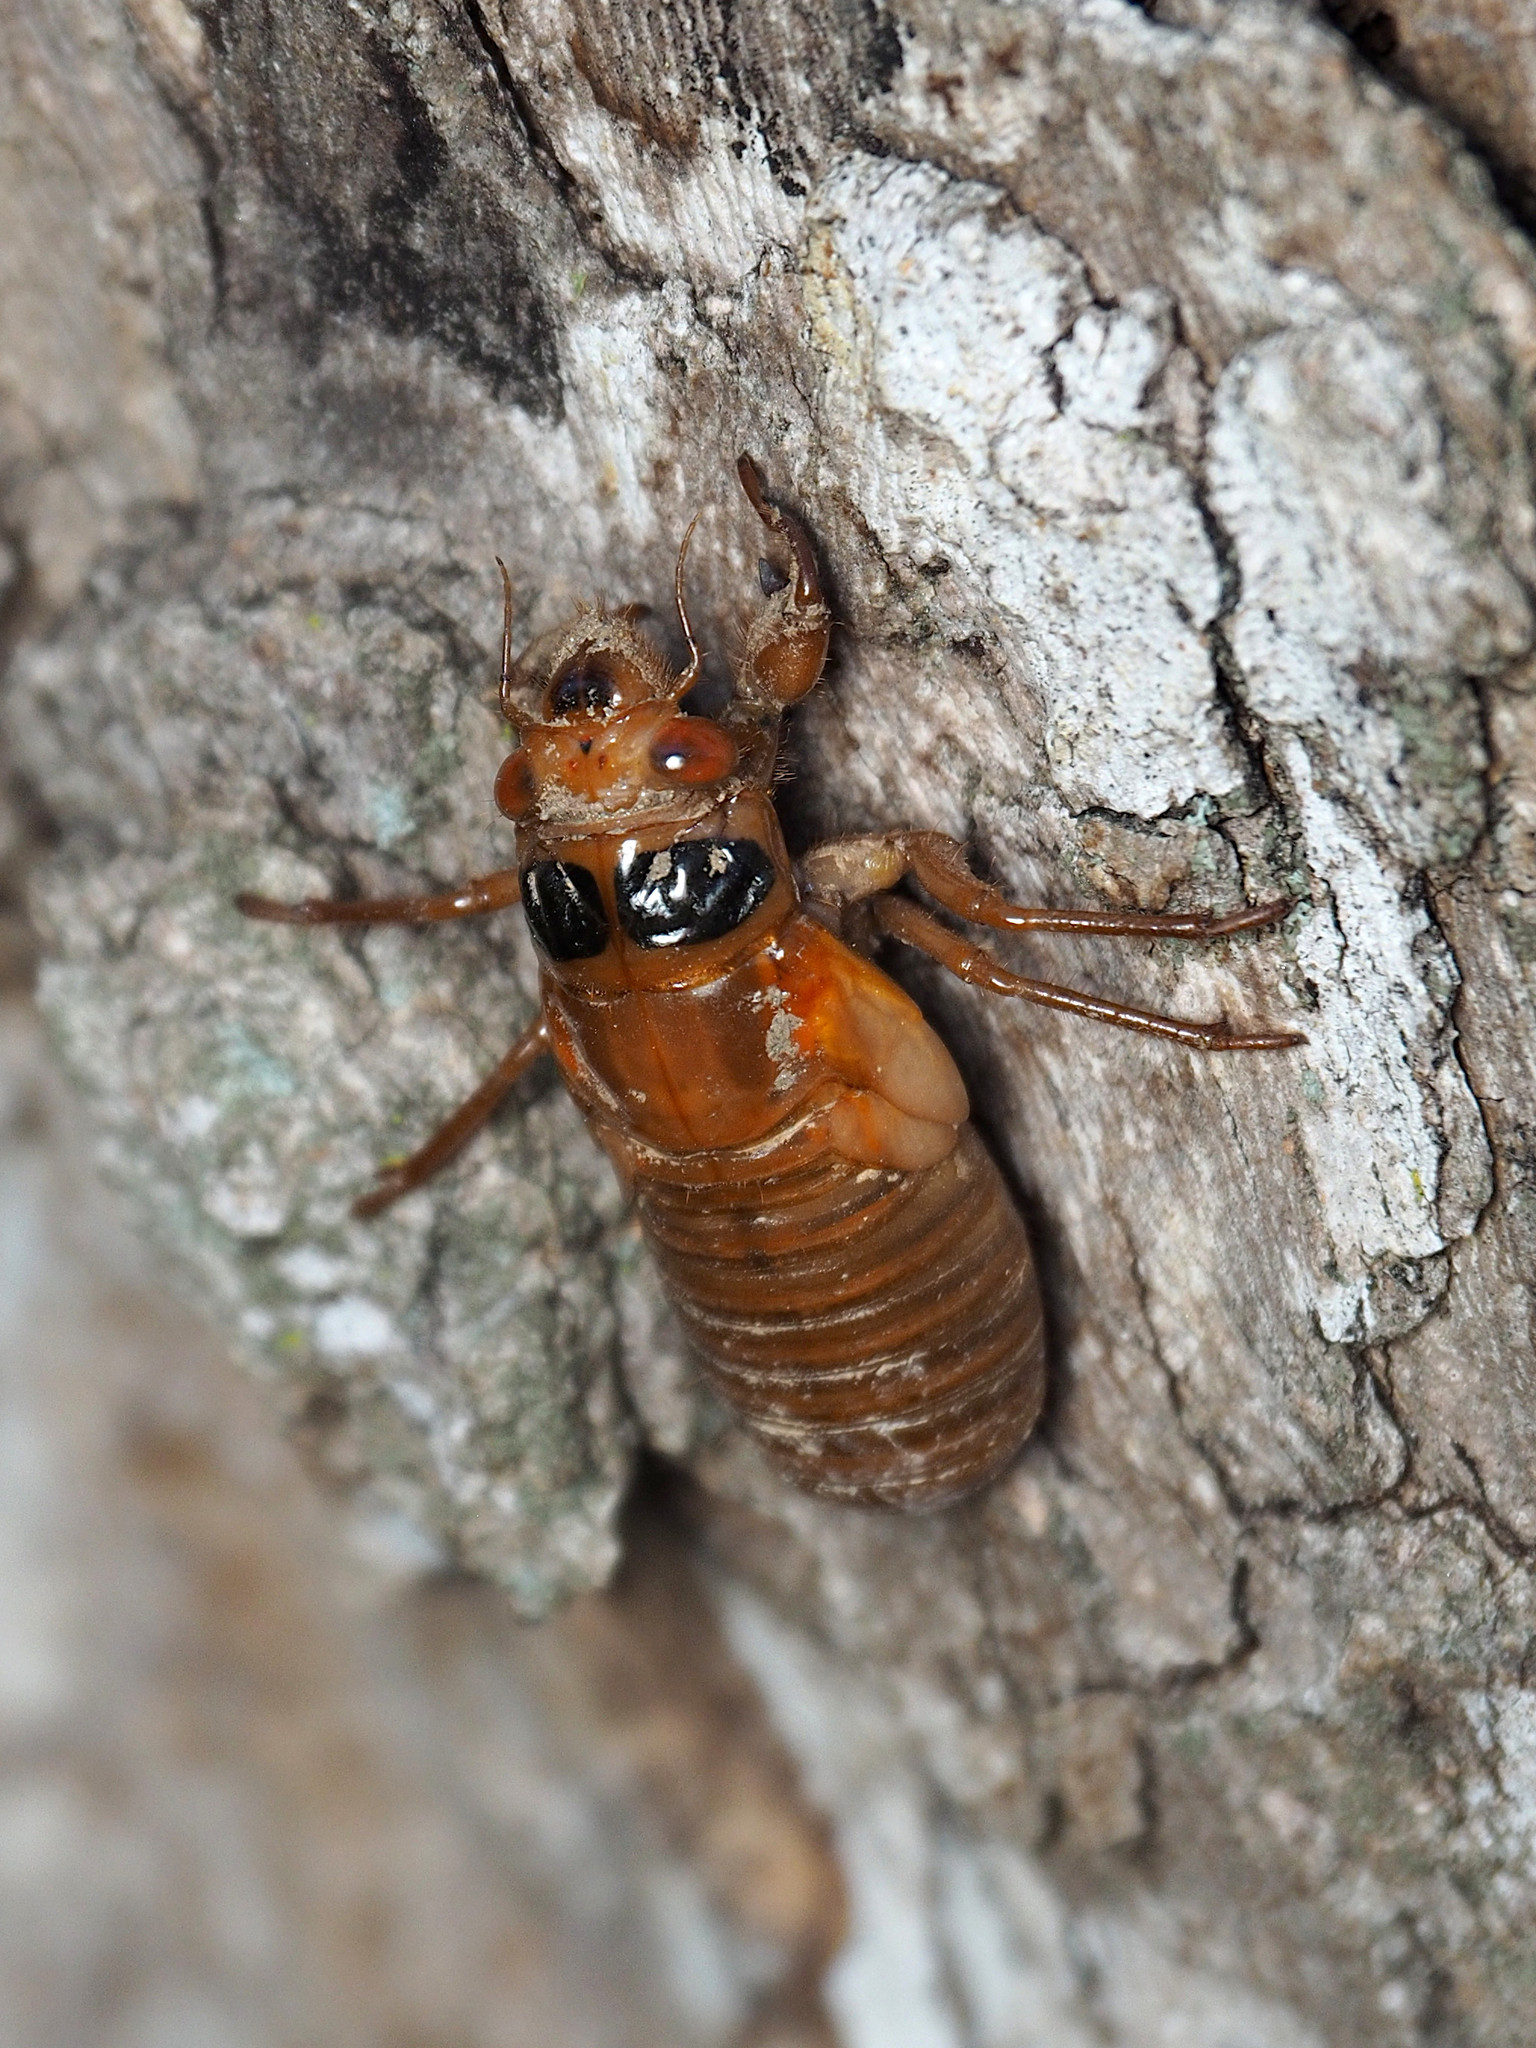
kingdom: Animalia
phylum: Arthropoda
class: Insecta
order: Hemiptera
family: Cicadidae
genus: Magicicada
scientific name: Magicicada
